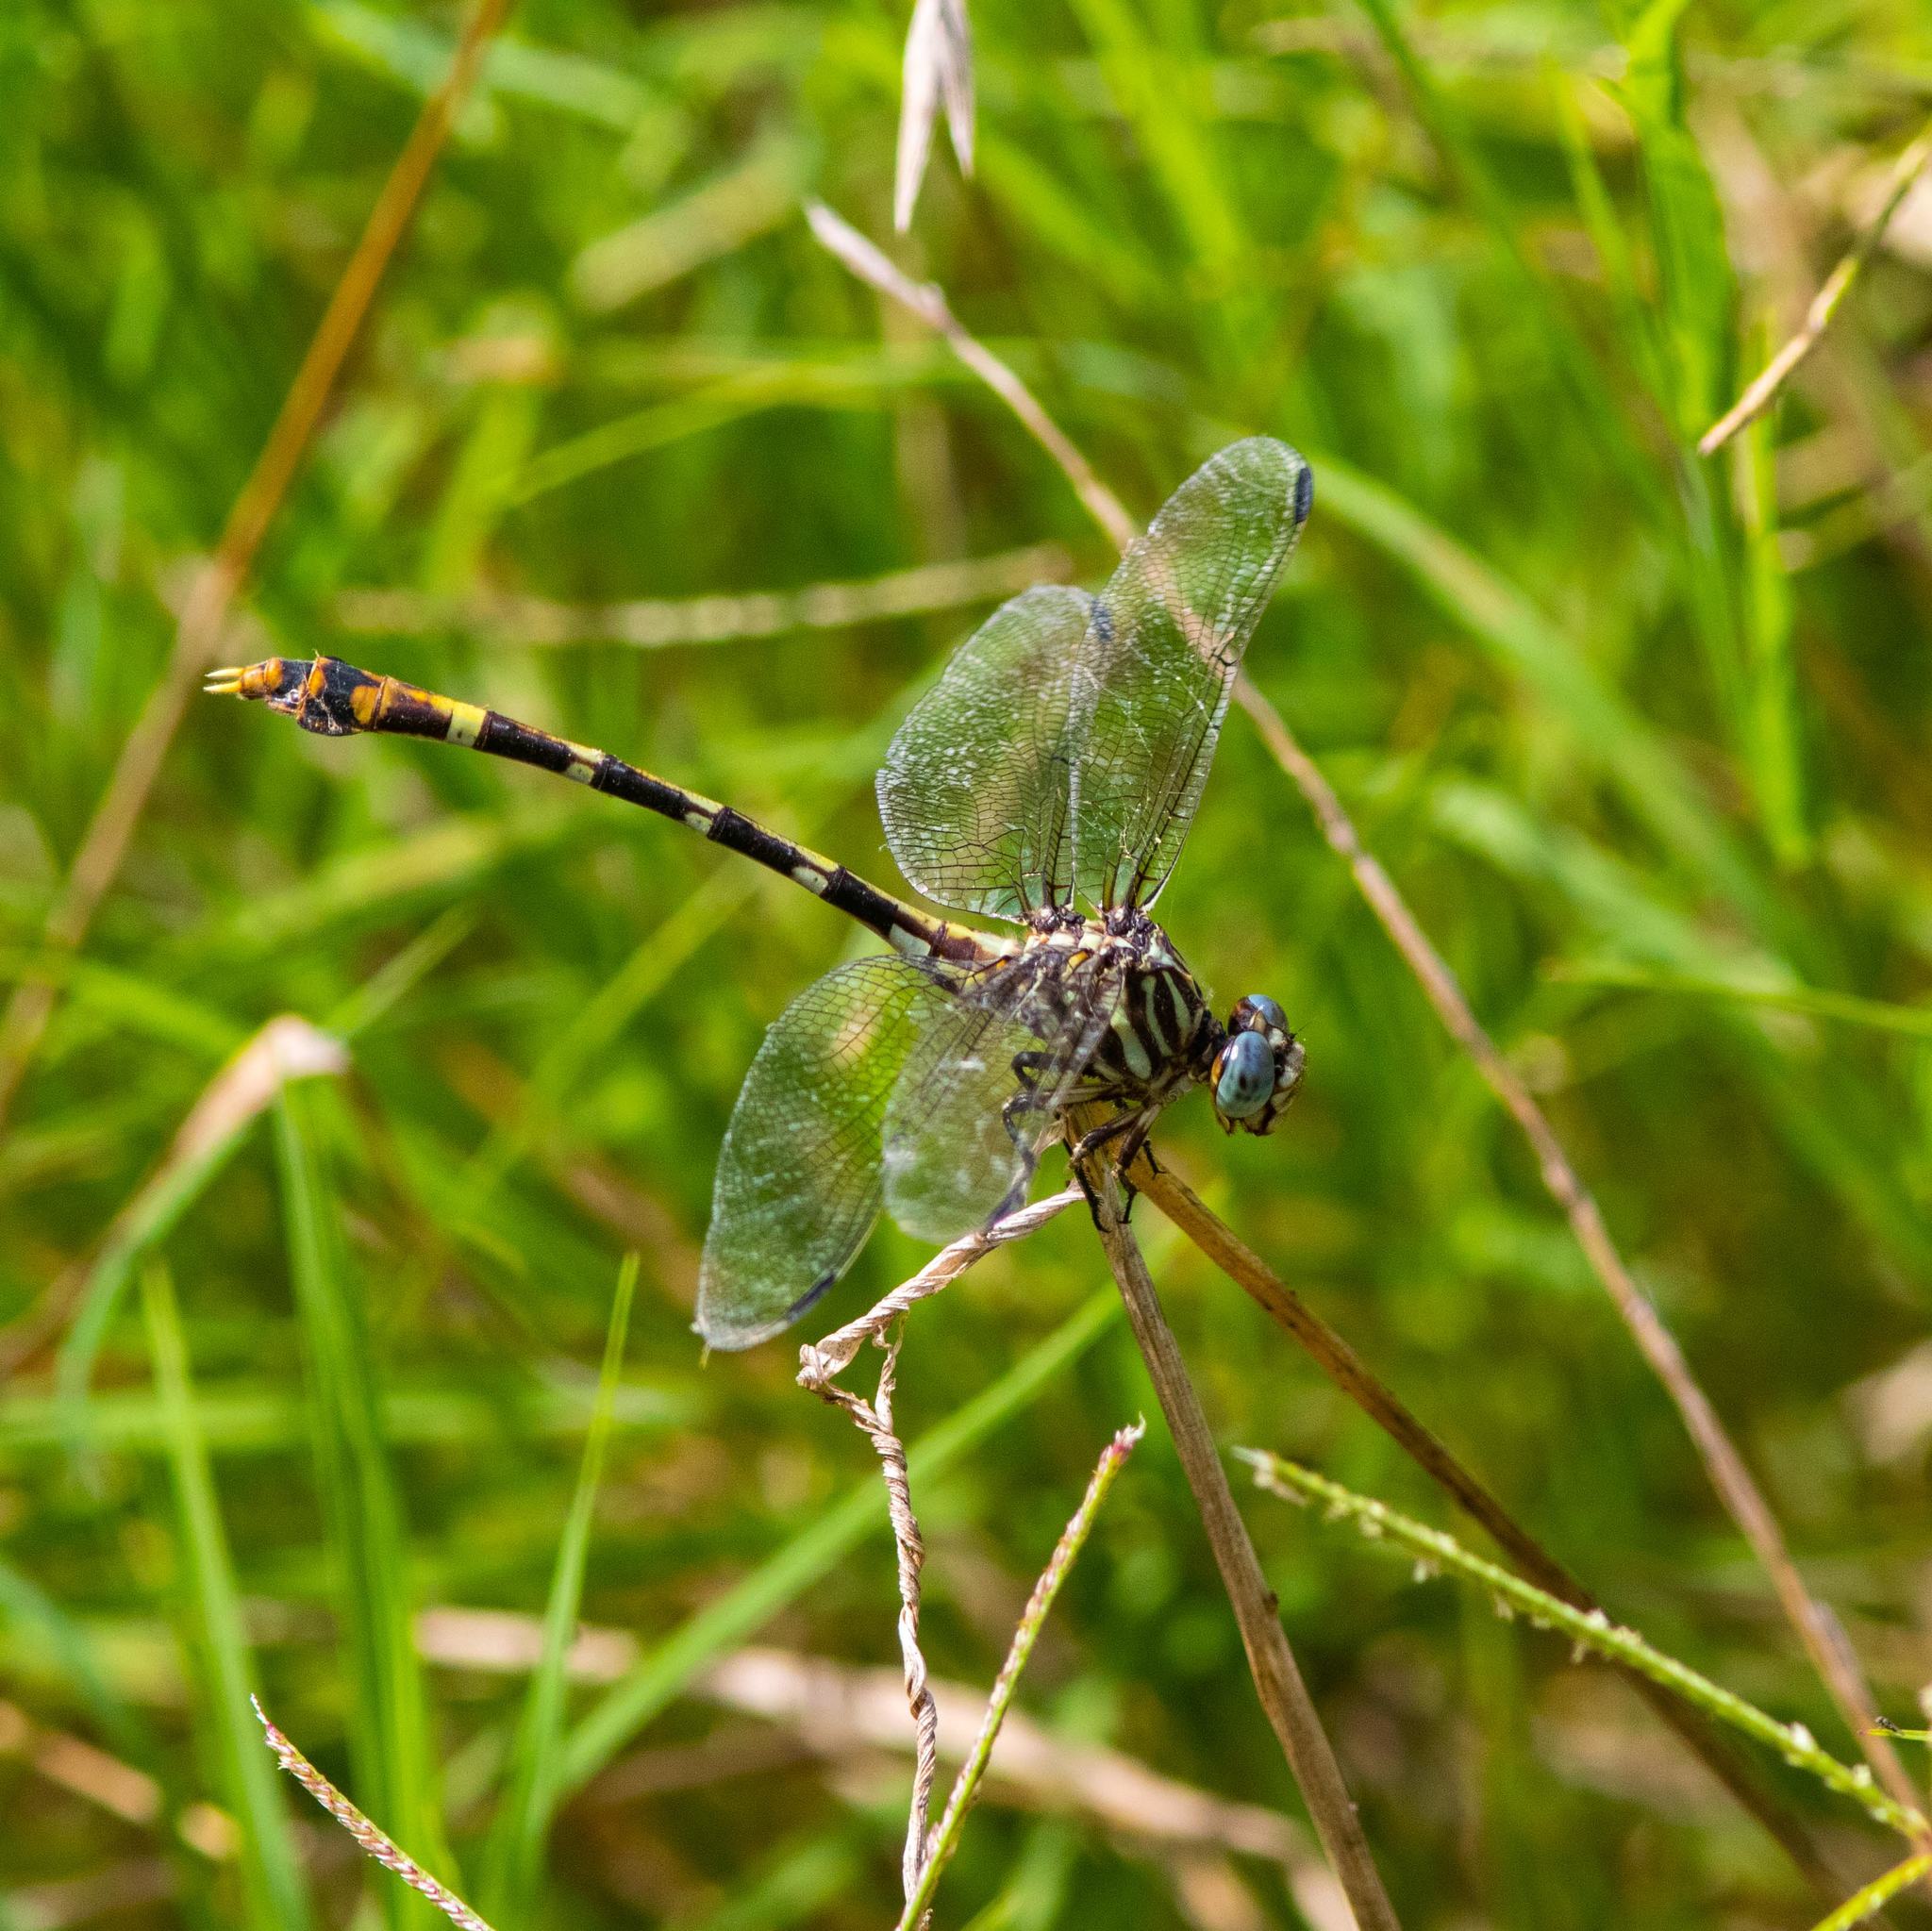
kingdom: Animalia
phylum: Arthropoda
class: Insecta
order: Odonata
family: Gomphidae
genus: Phyllogomphoides
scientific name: Phyllogomphoides albrighti
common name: Five-striped leaftail
